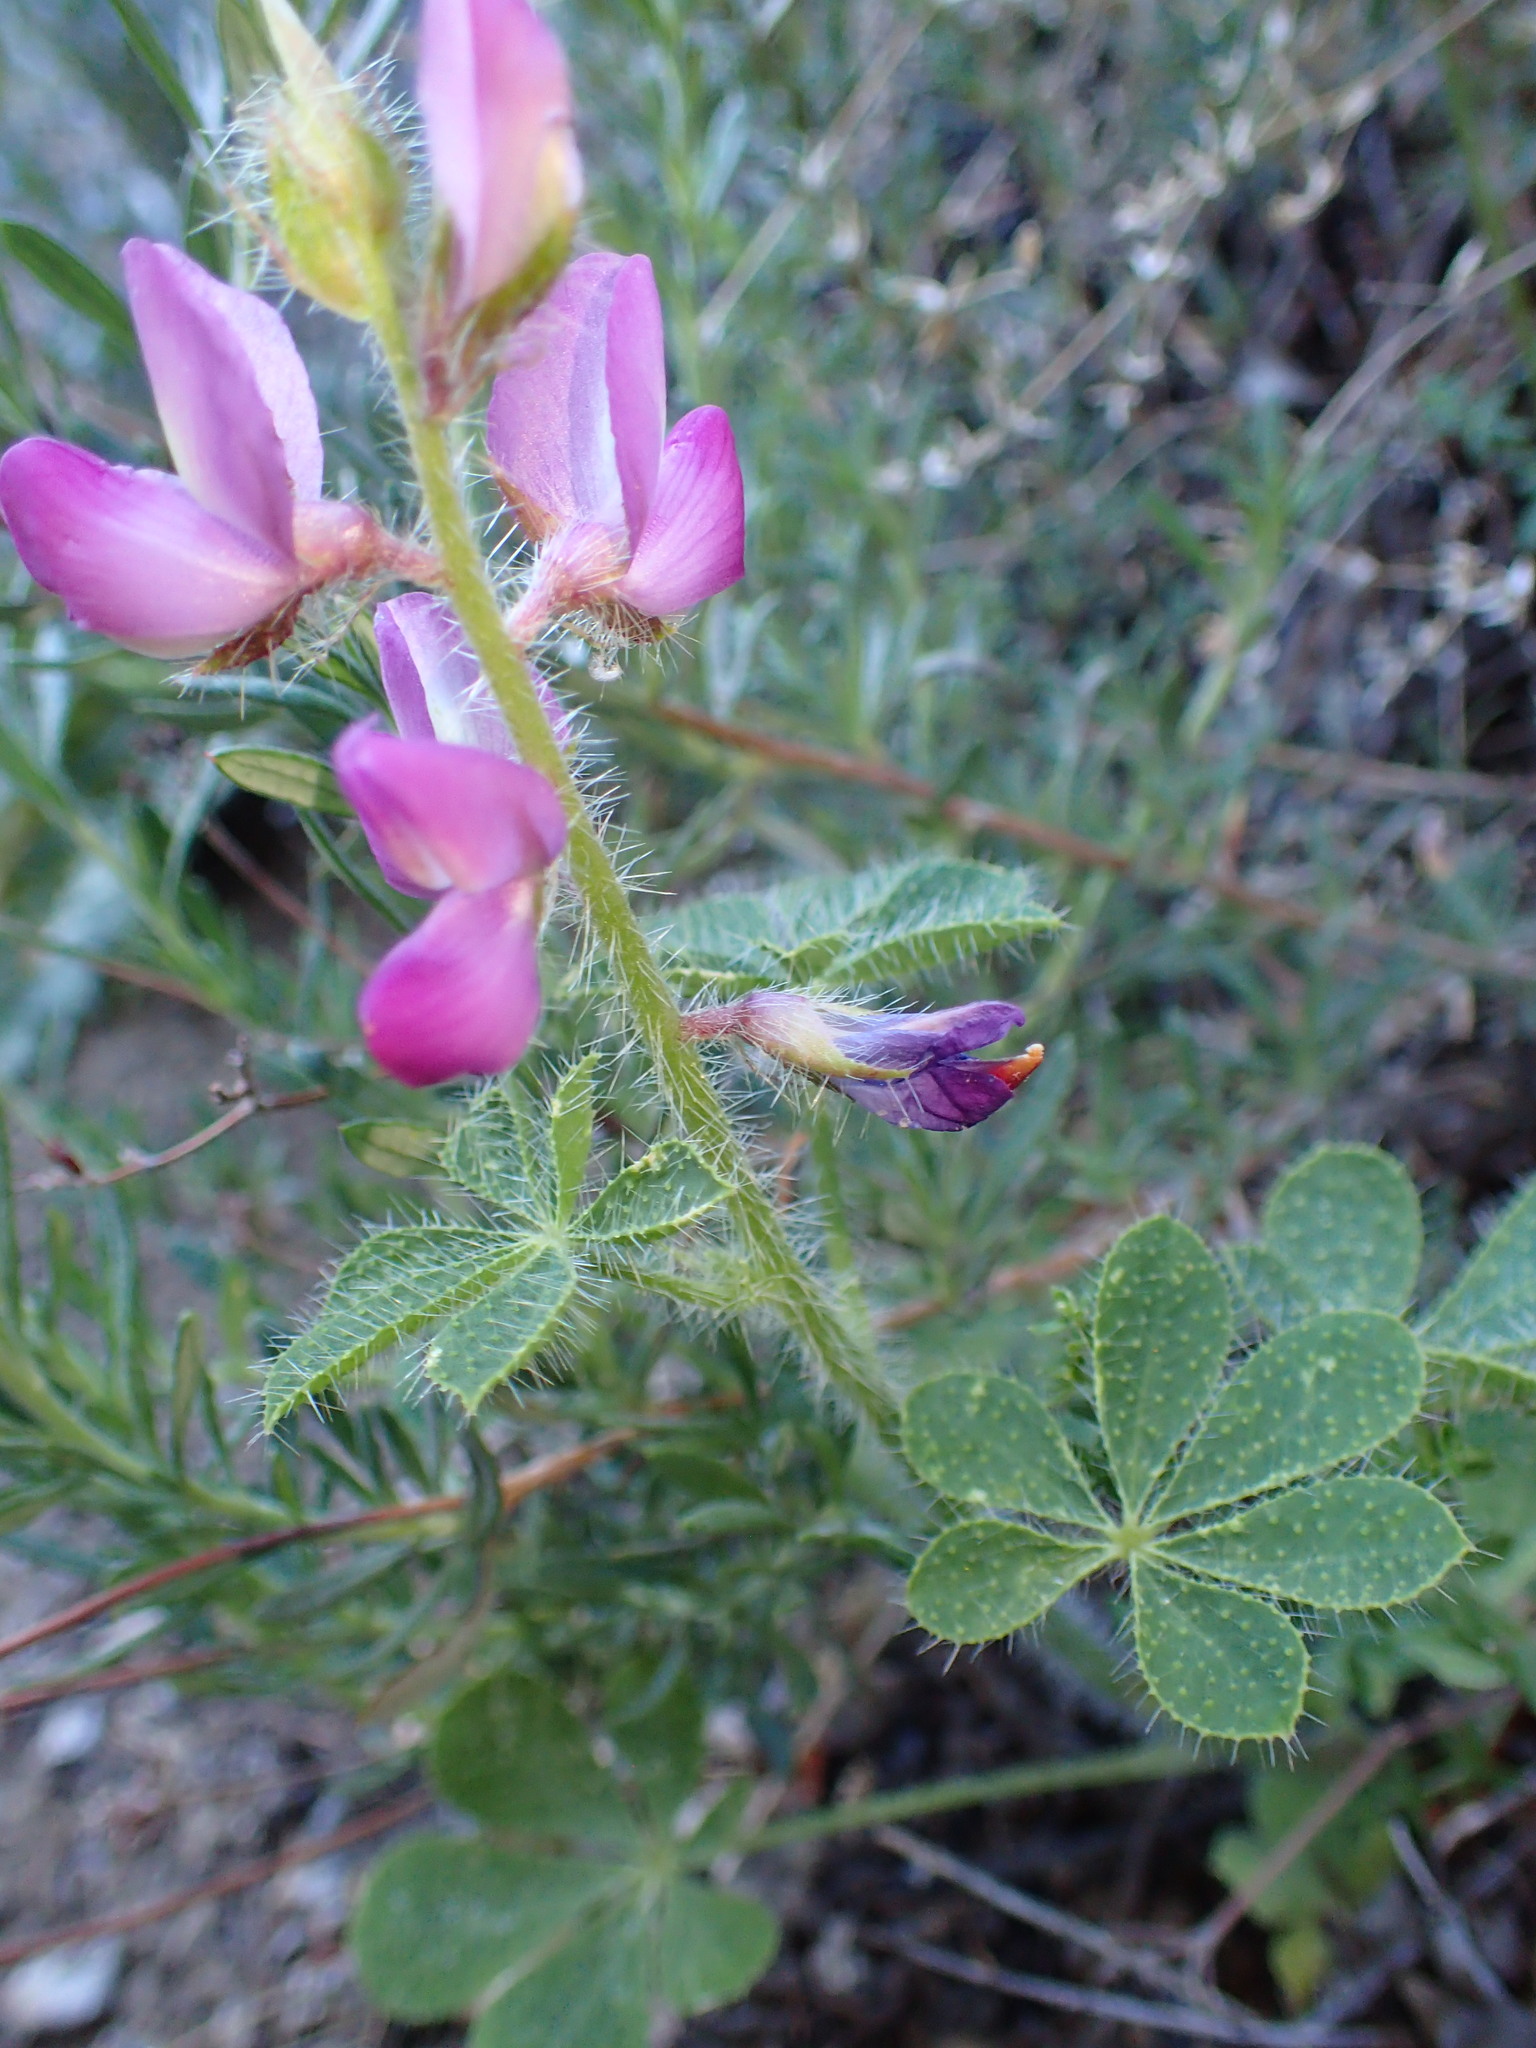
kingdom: Plantae
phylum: Tracheophyta
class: Magnoliopsida
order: Fabales
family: Fabaceae
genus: Lupinus
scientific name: Lupinus hirsutissimus
